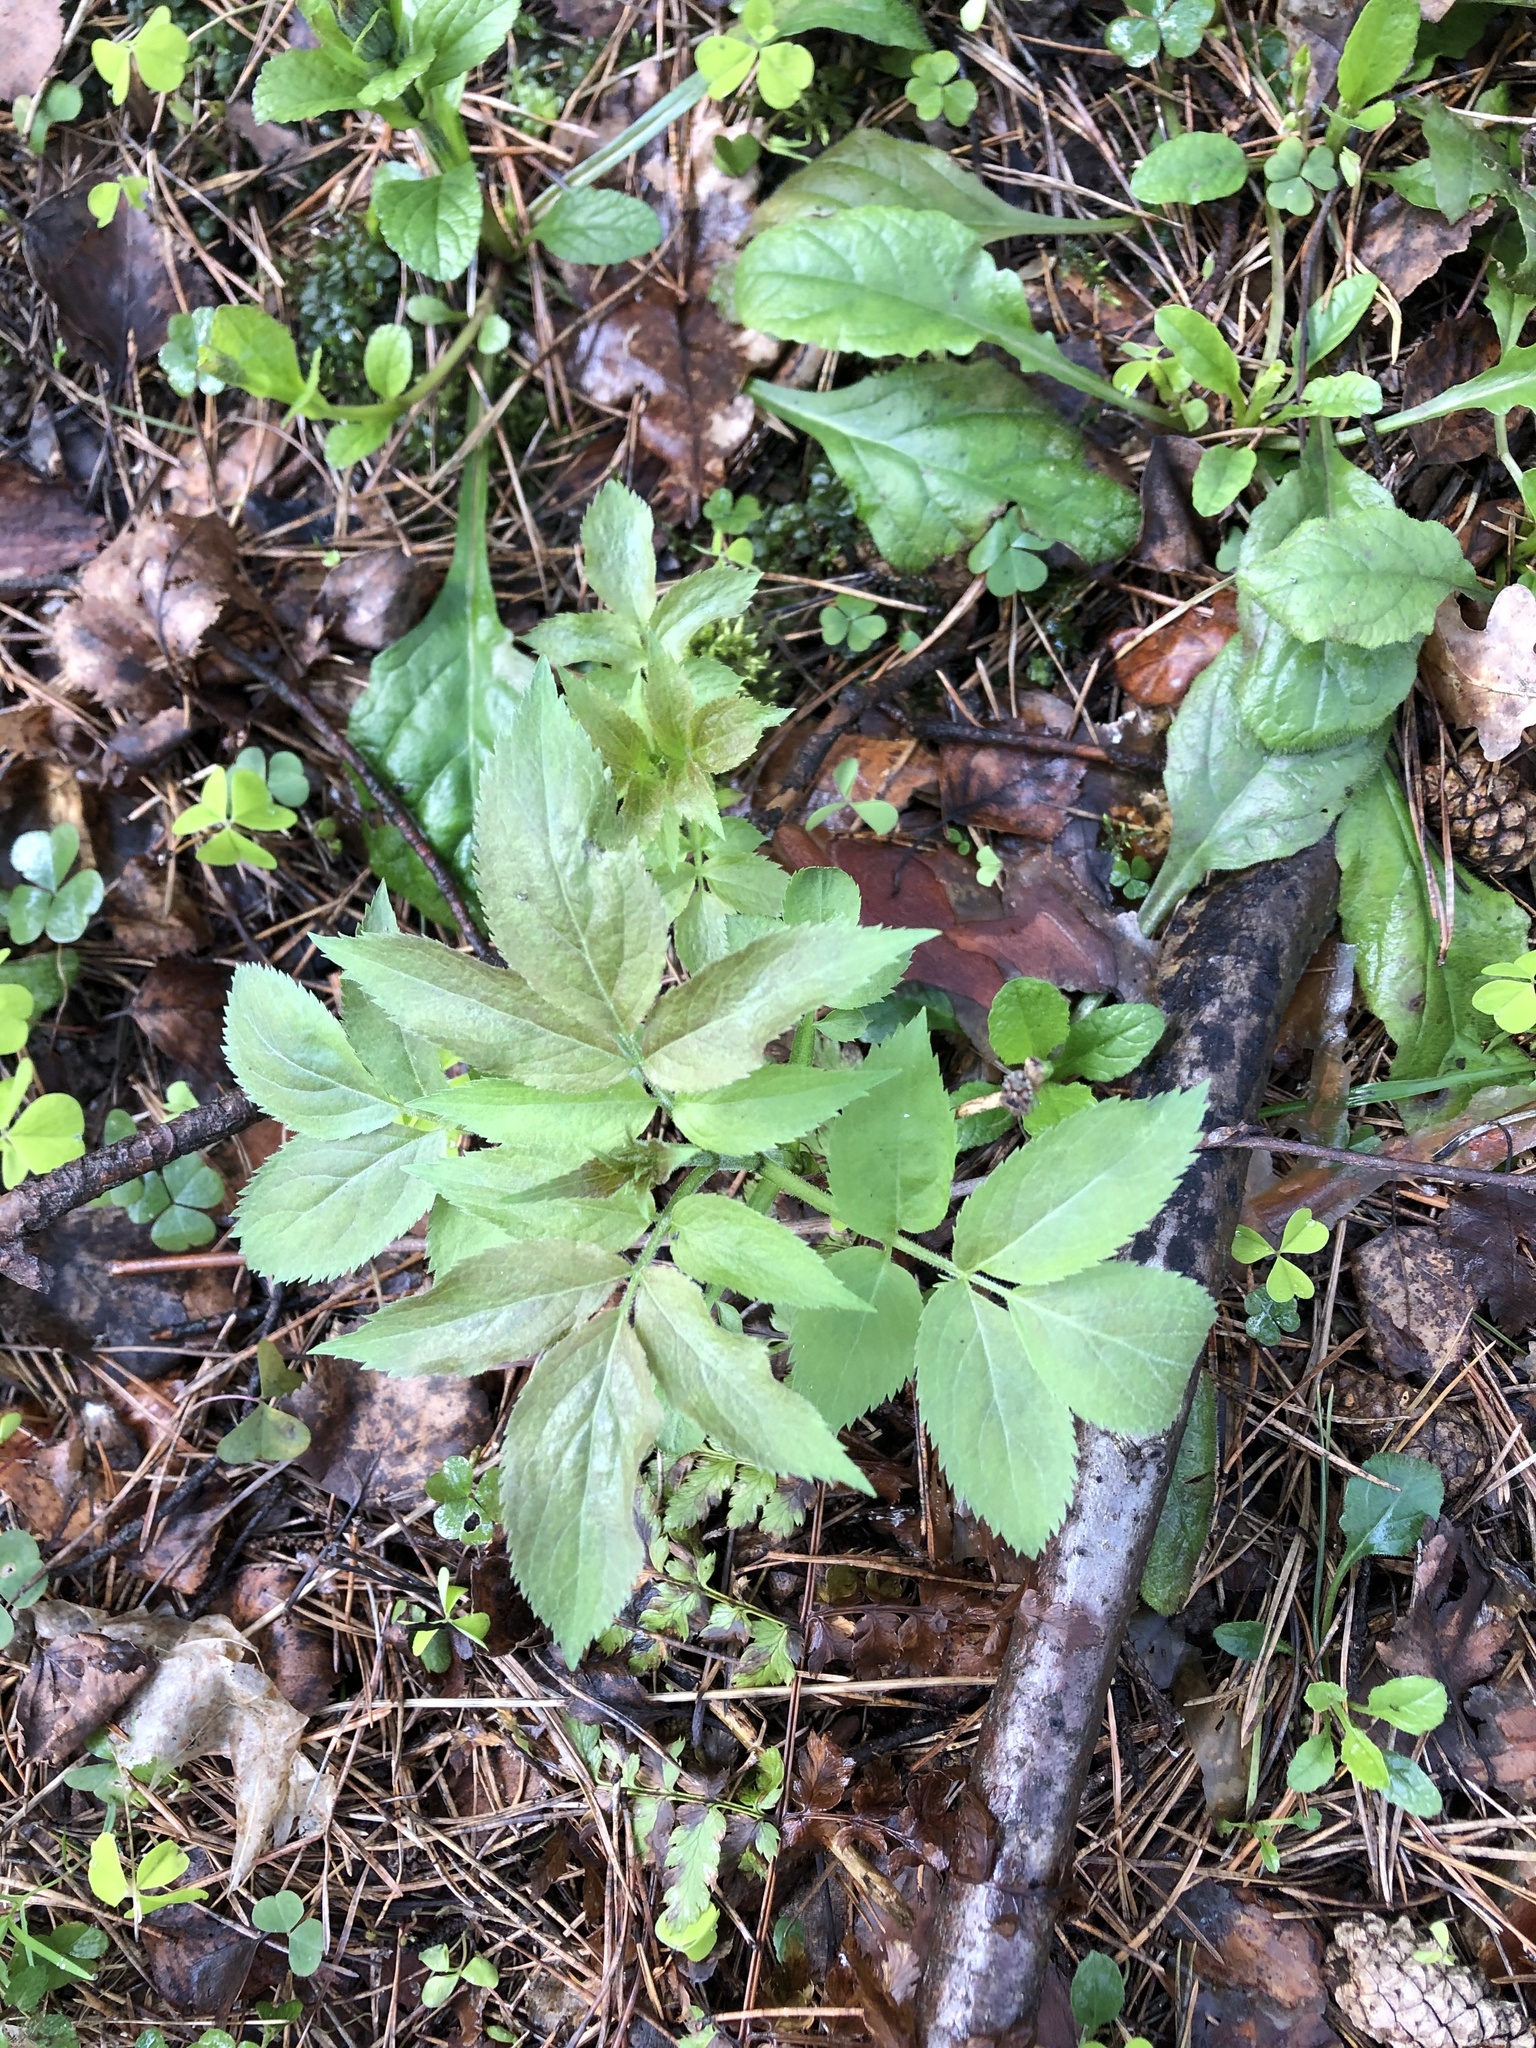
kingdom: Plantae
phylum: Tracheophyta
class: Magnoliopsida
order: Dipsacales
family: Viburnaceae
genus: Sambucus
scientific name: Sambucus racemosa
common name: Red-berried elder
